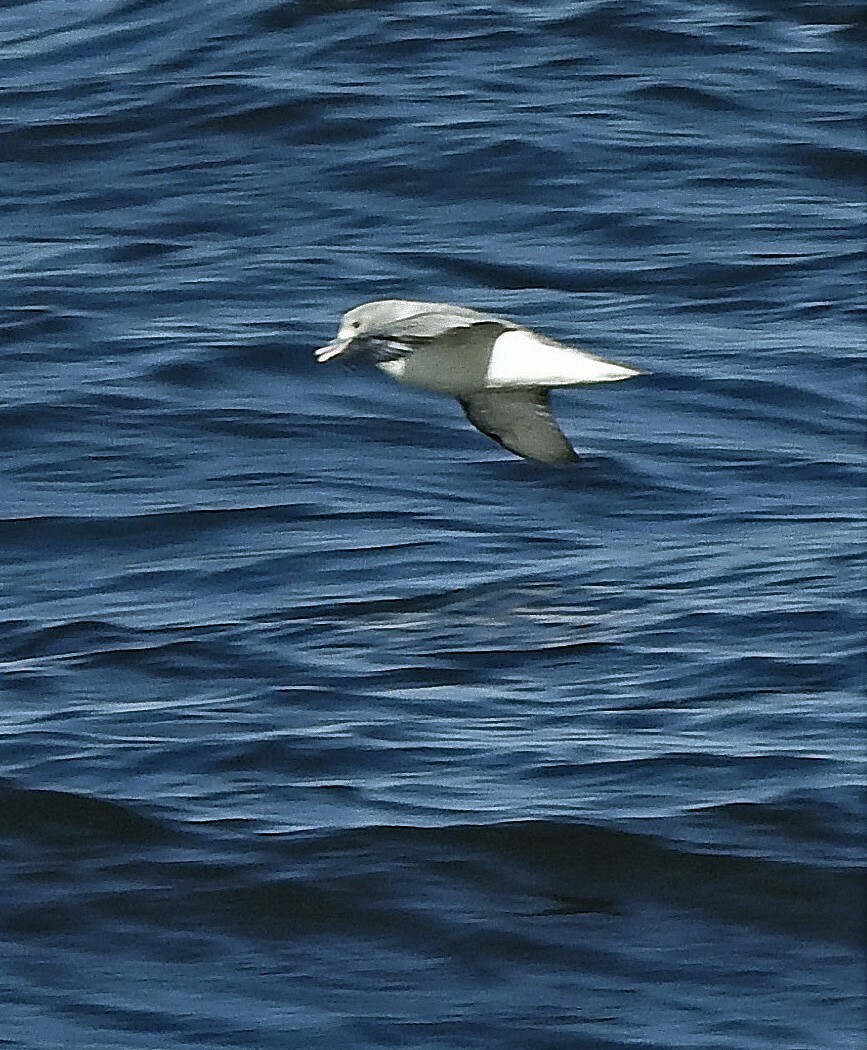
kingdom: Animalia
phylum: Chordata
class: Aves
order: Procellariiformes
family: Procellariidae
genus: Fulmarus
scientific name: Fulmarus glacialoides
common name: Southern fulmar
